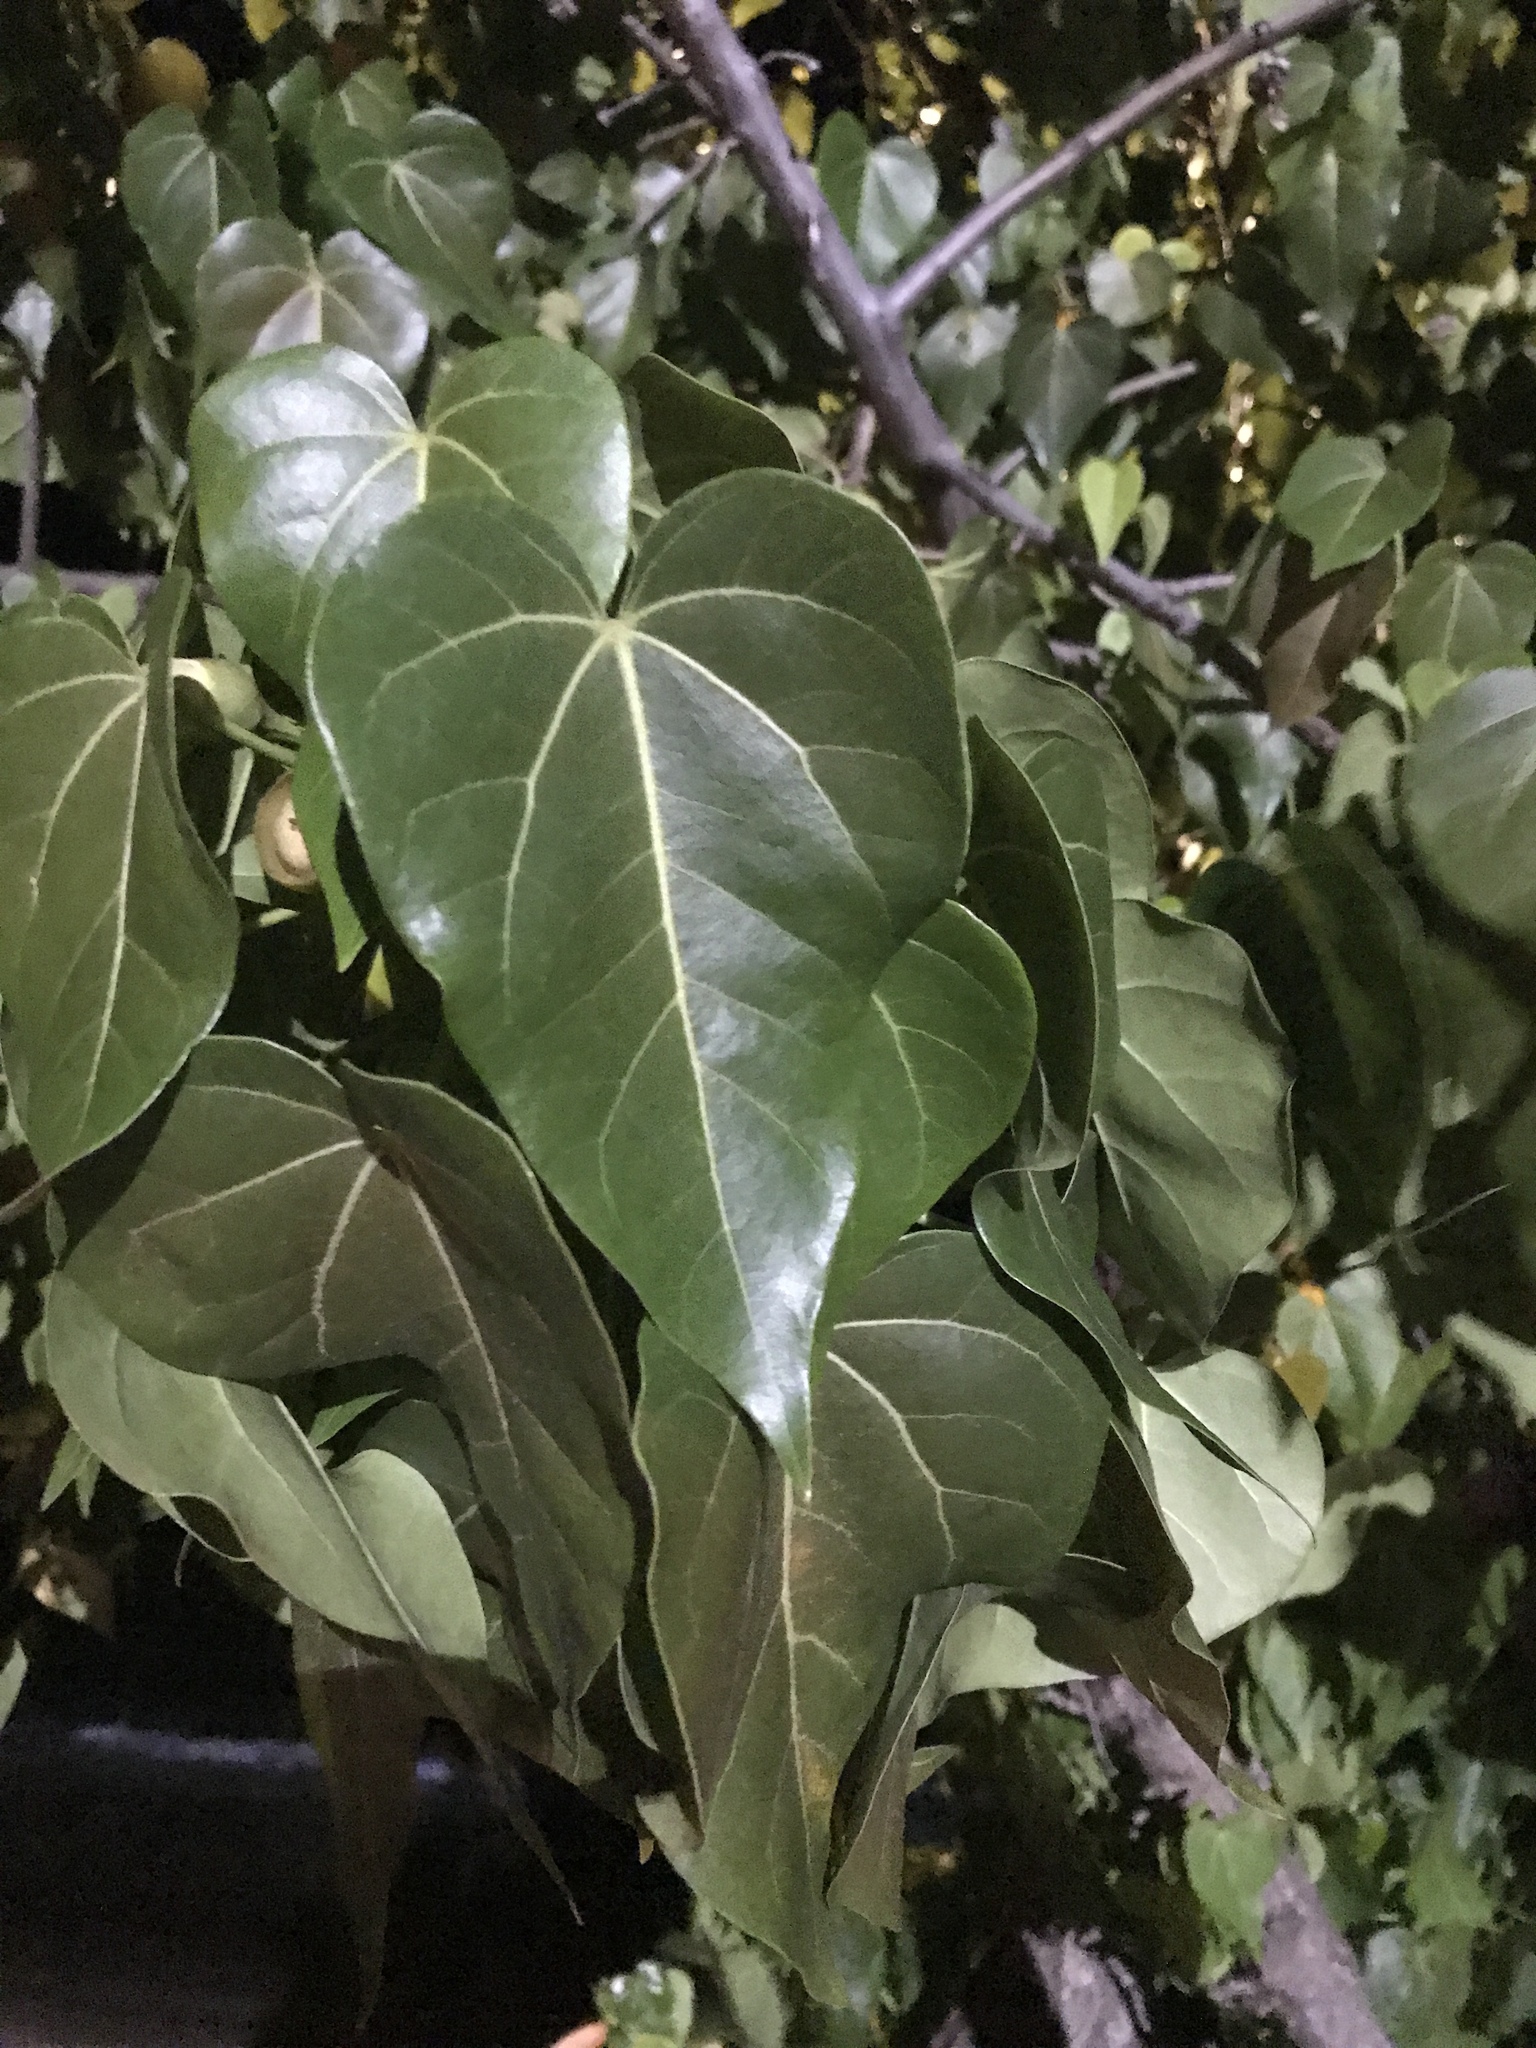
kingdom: Plantae
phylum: Tracheophyta
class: Magnoliopsida
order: Malvales
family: Malvaceae
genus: Thespesia
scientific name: Thespesia populnea
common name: Seaside mahoe
